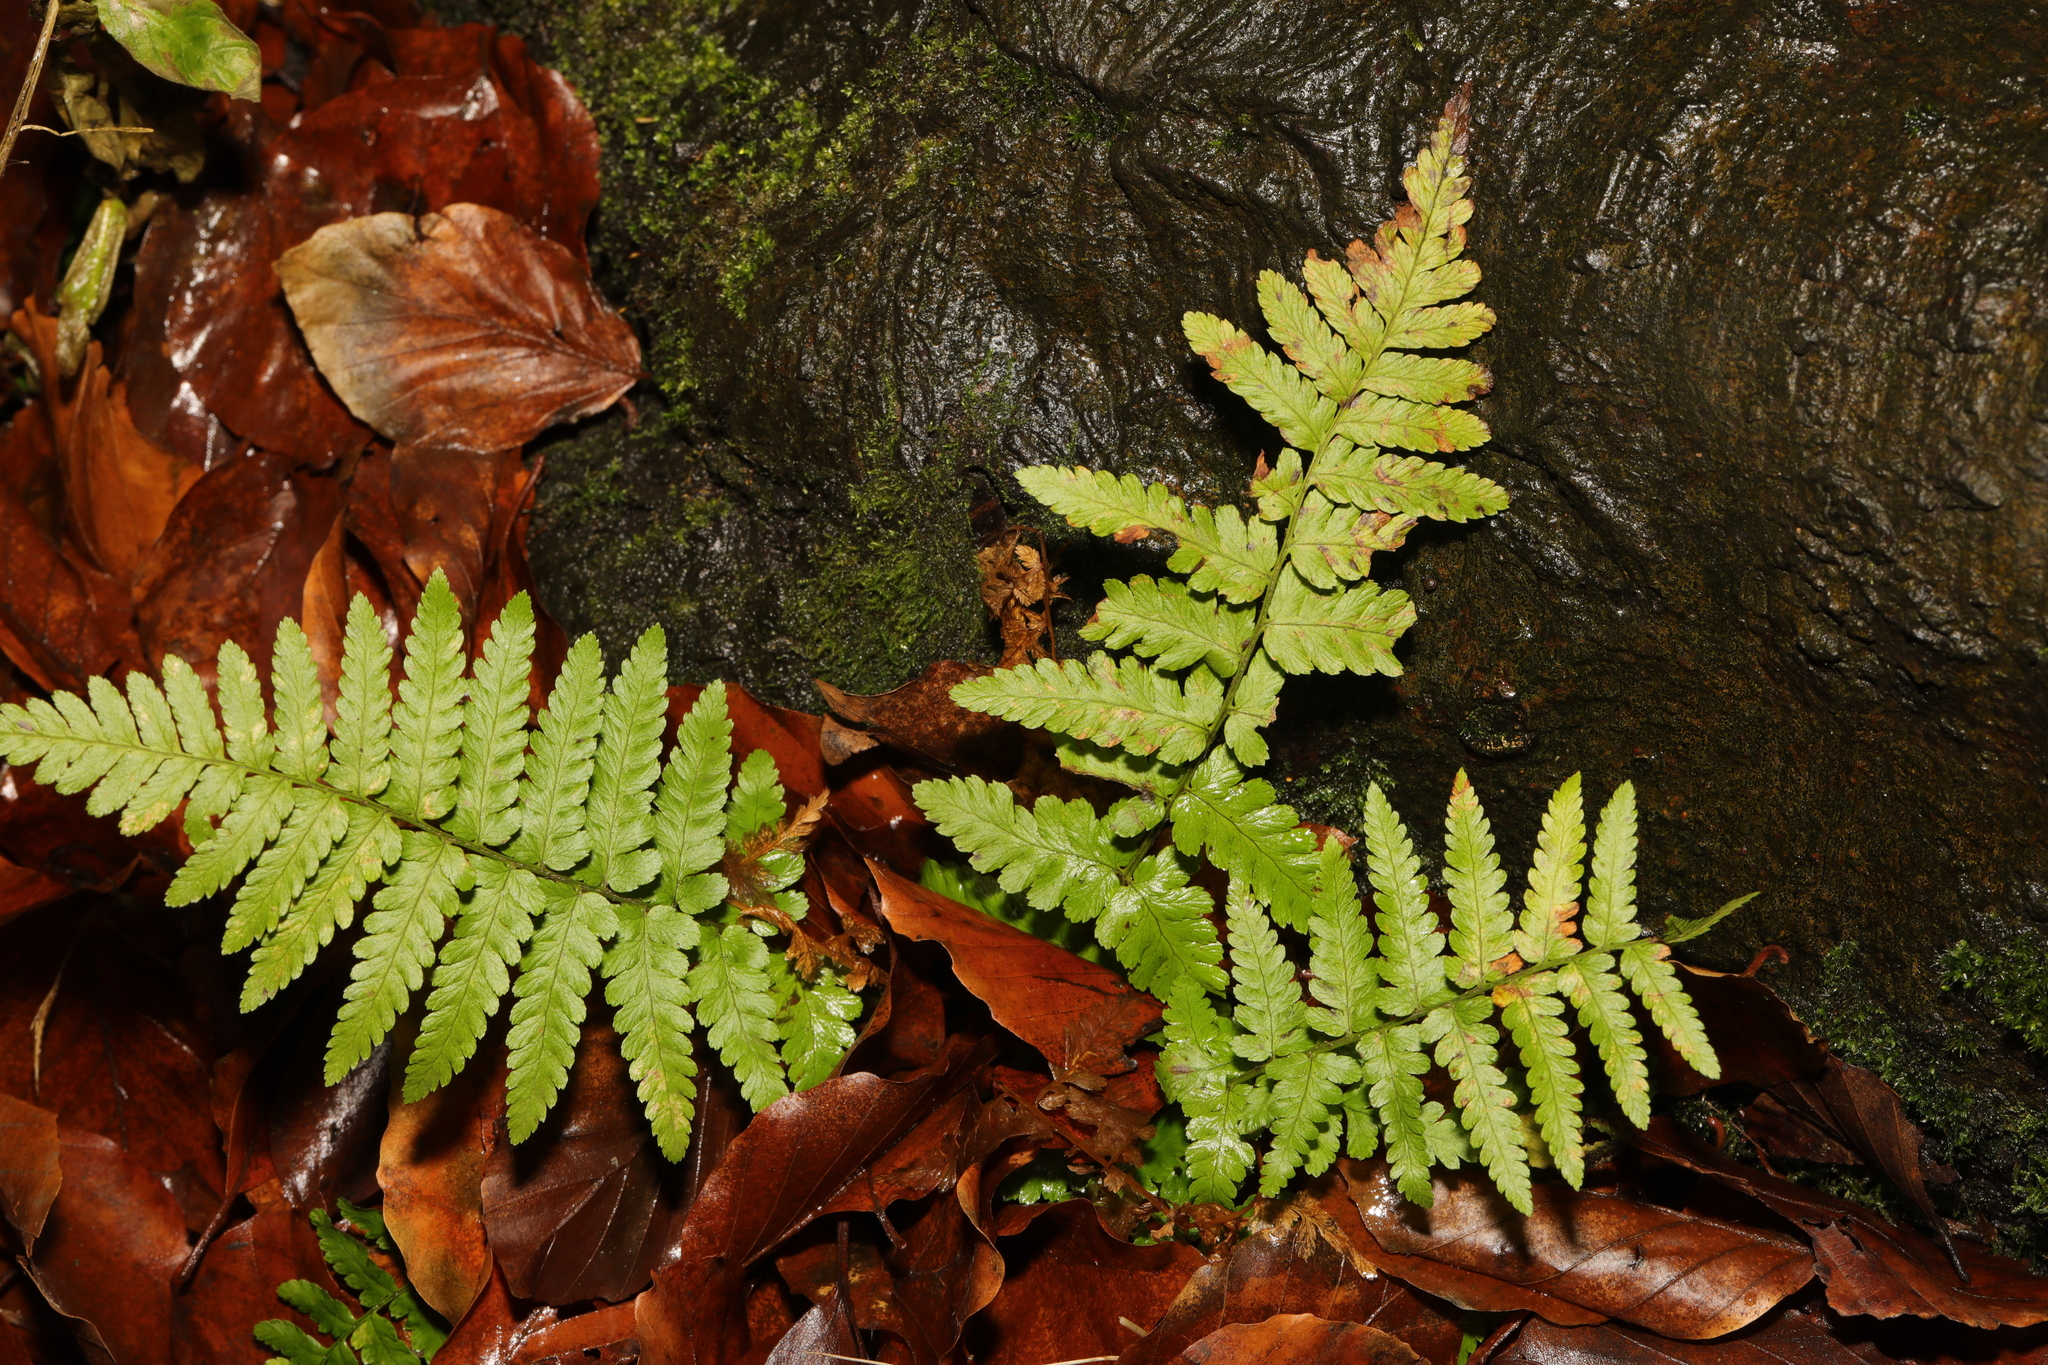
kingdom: Plantae
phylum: Tracheophyta
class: Polypodiopsida
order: Polypodiales
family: Dryopteridaceae
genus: Dryopteris
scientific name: Dryopteris filix-mas
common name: Male fern
